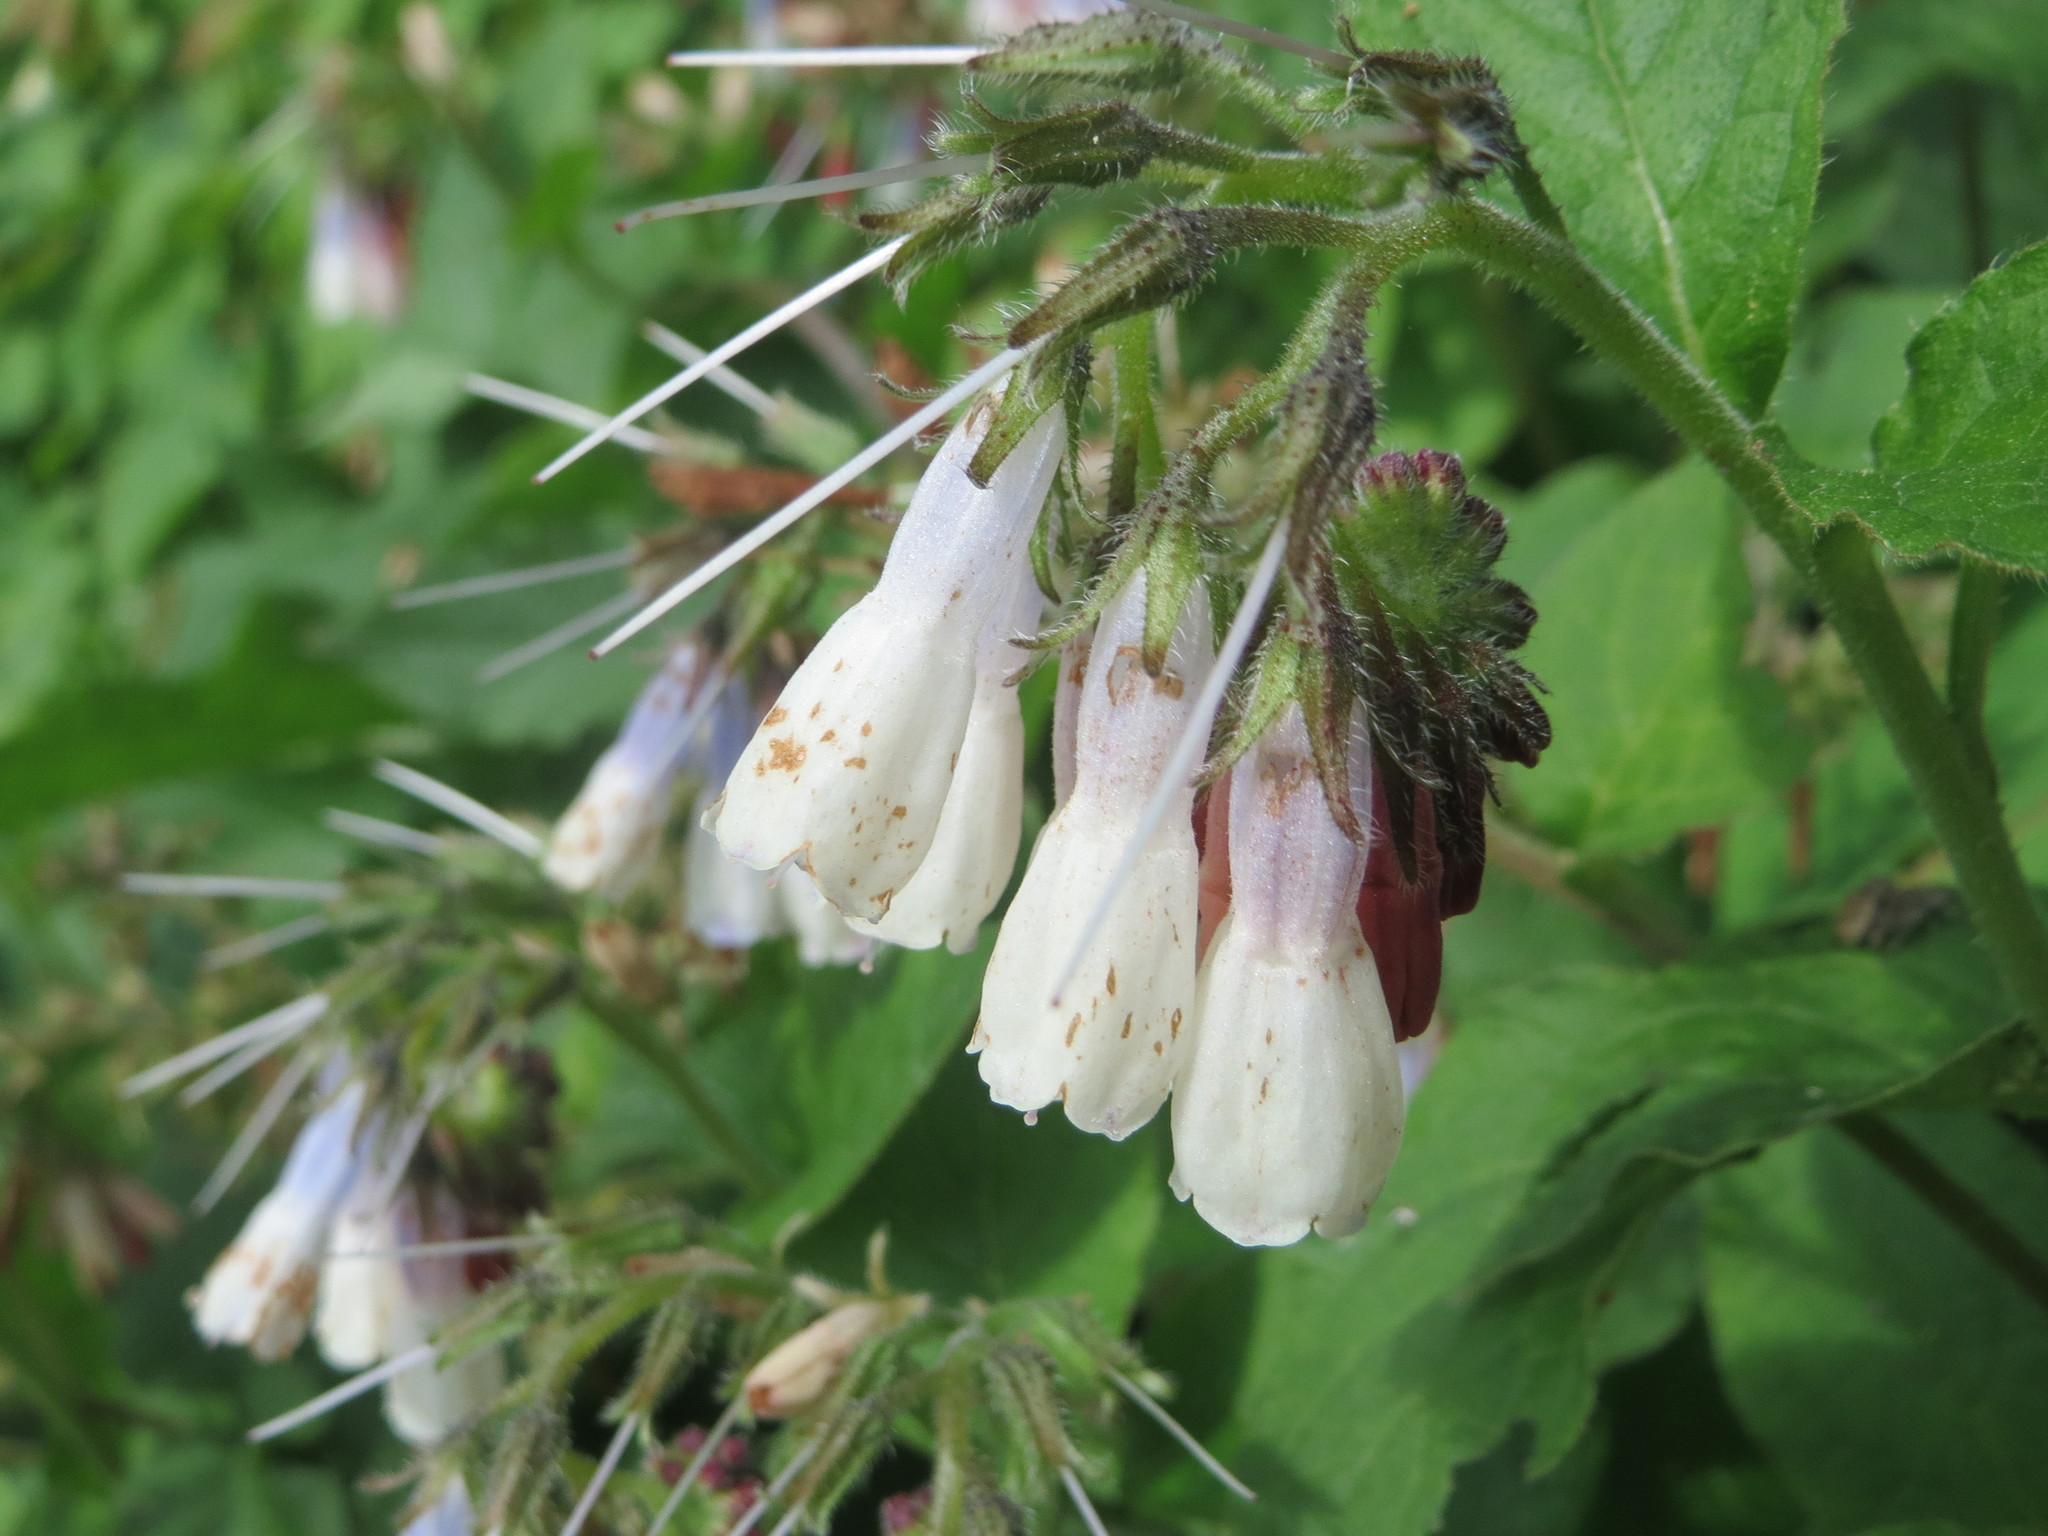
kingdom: Plantae
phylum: Tracheophyta
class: Magnoliopsida
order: Boraginales
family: Boraginaceae
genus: Symphytum
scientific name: Symphytum grandiflorum
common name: Creeping comfrey
